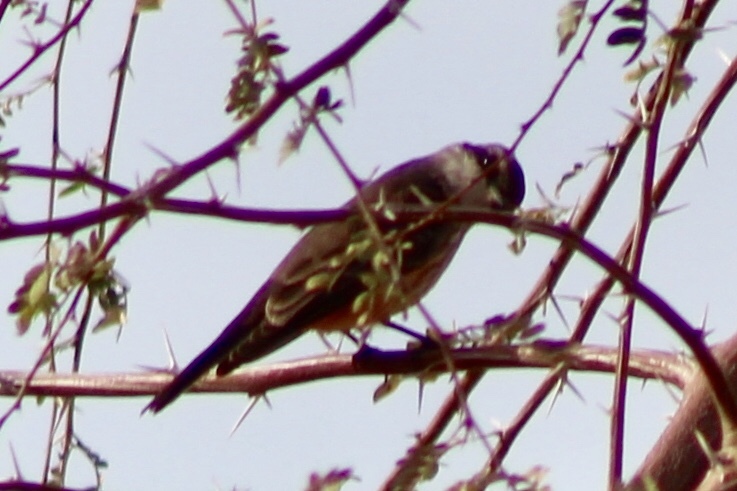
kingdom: Animalia
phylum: Chordata
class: Aves
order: Passeriformes
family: Tyrannidae
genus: Pyrocephalus
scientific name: Pyrocephalus rubinus
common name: Vermilion flycatcher
